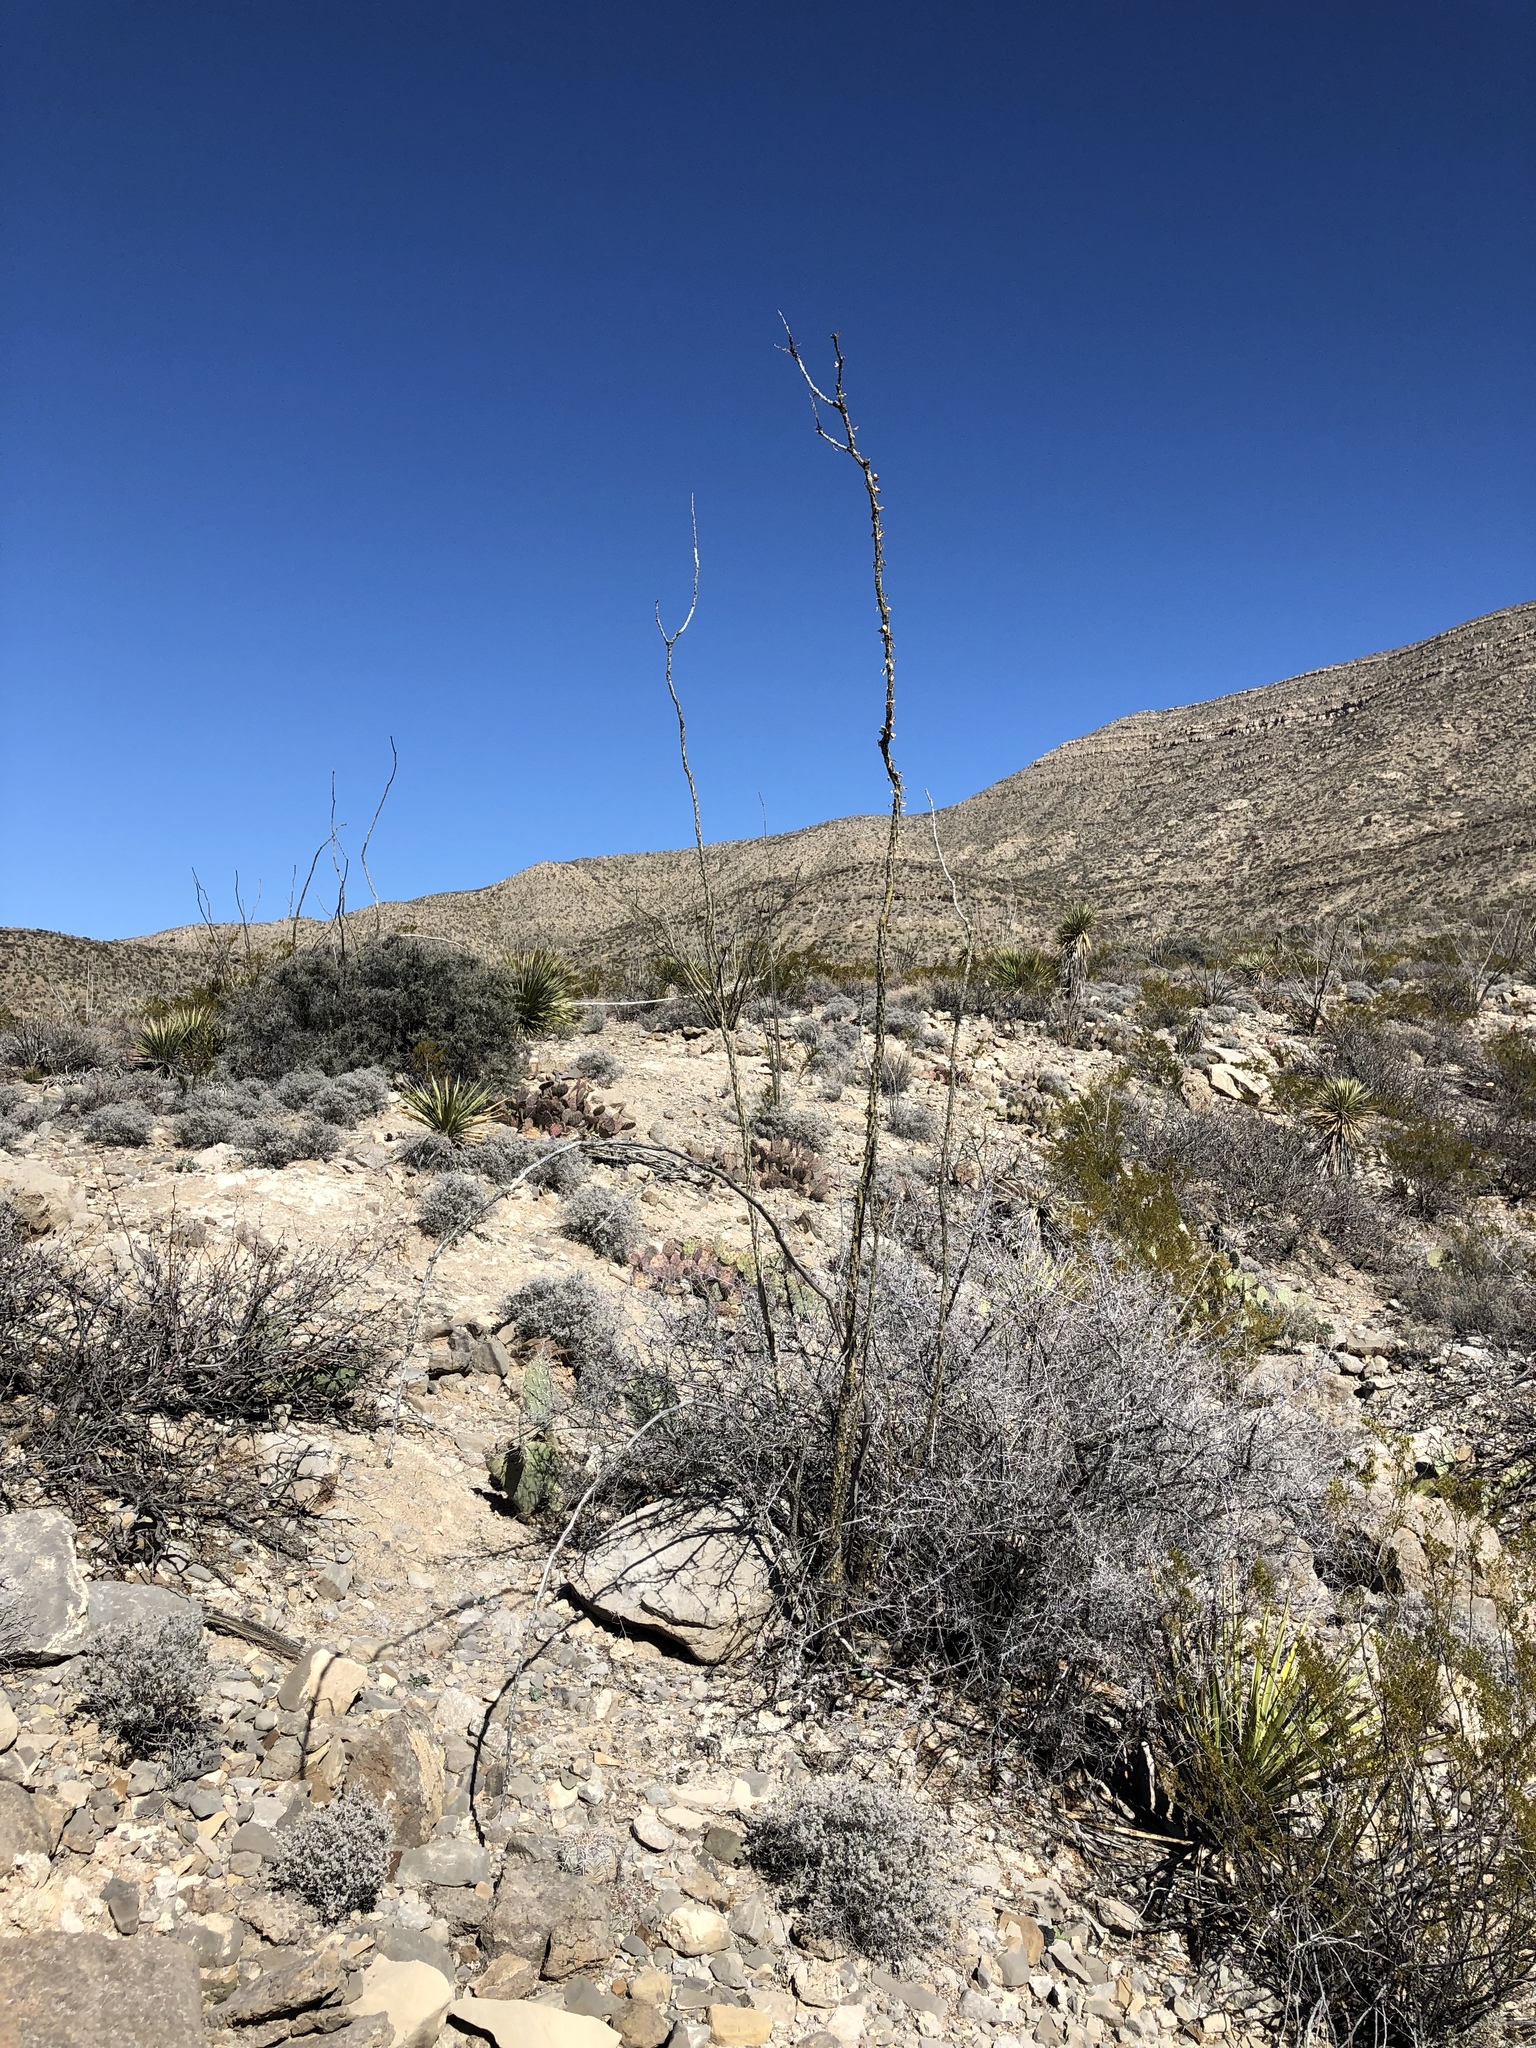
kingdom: Plantae
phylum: Tracheophyta
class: Magnoliopsida
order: Ericales
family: Fouquieriaceae
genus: Fouquieria
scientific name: Fouquieria splendens
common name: Vine-cactus
